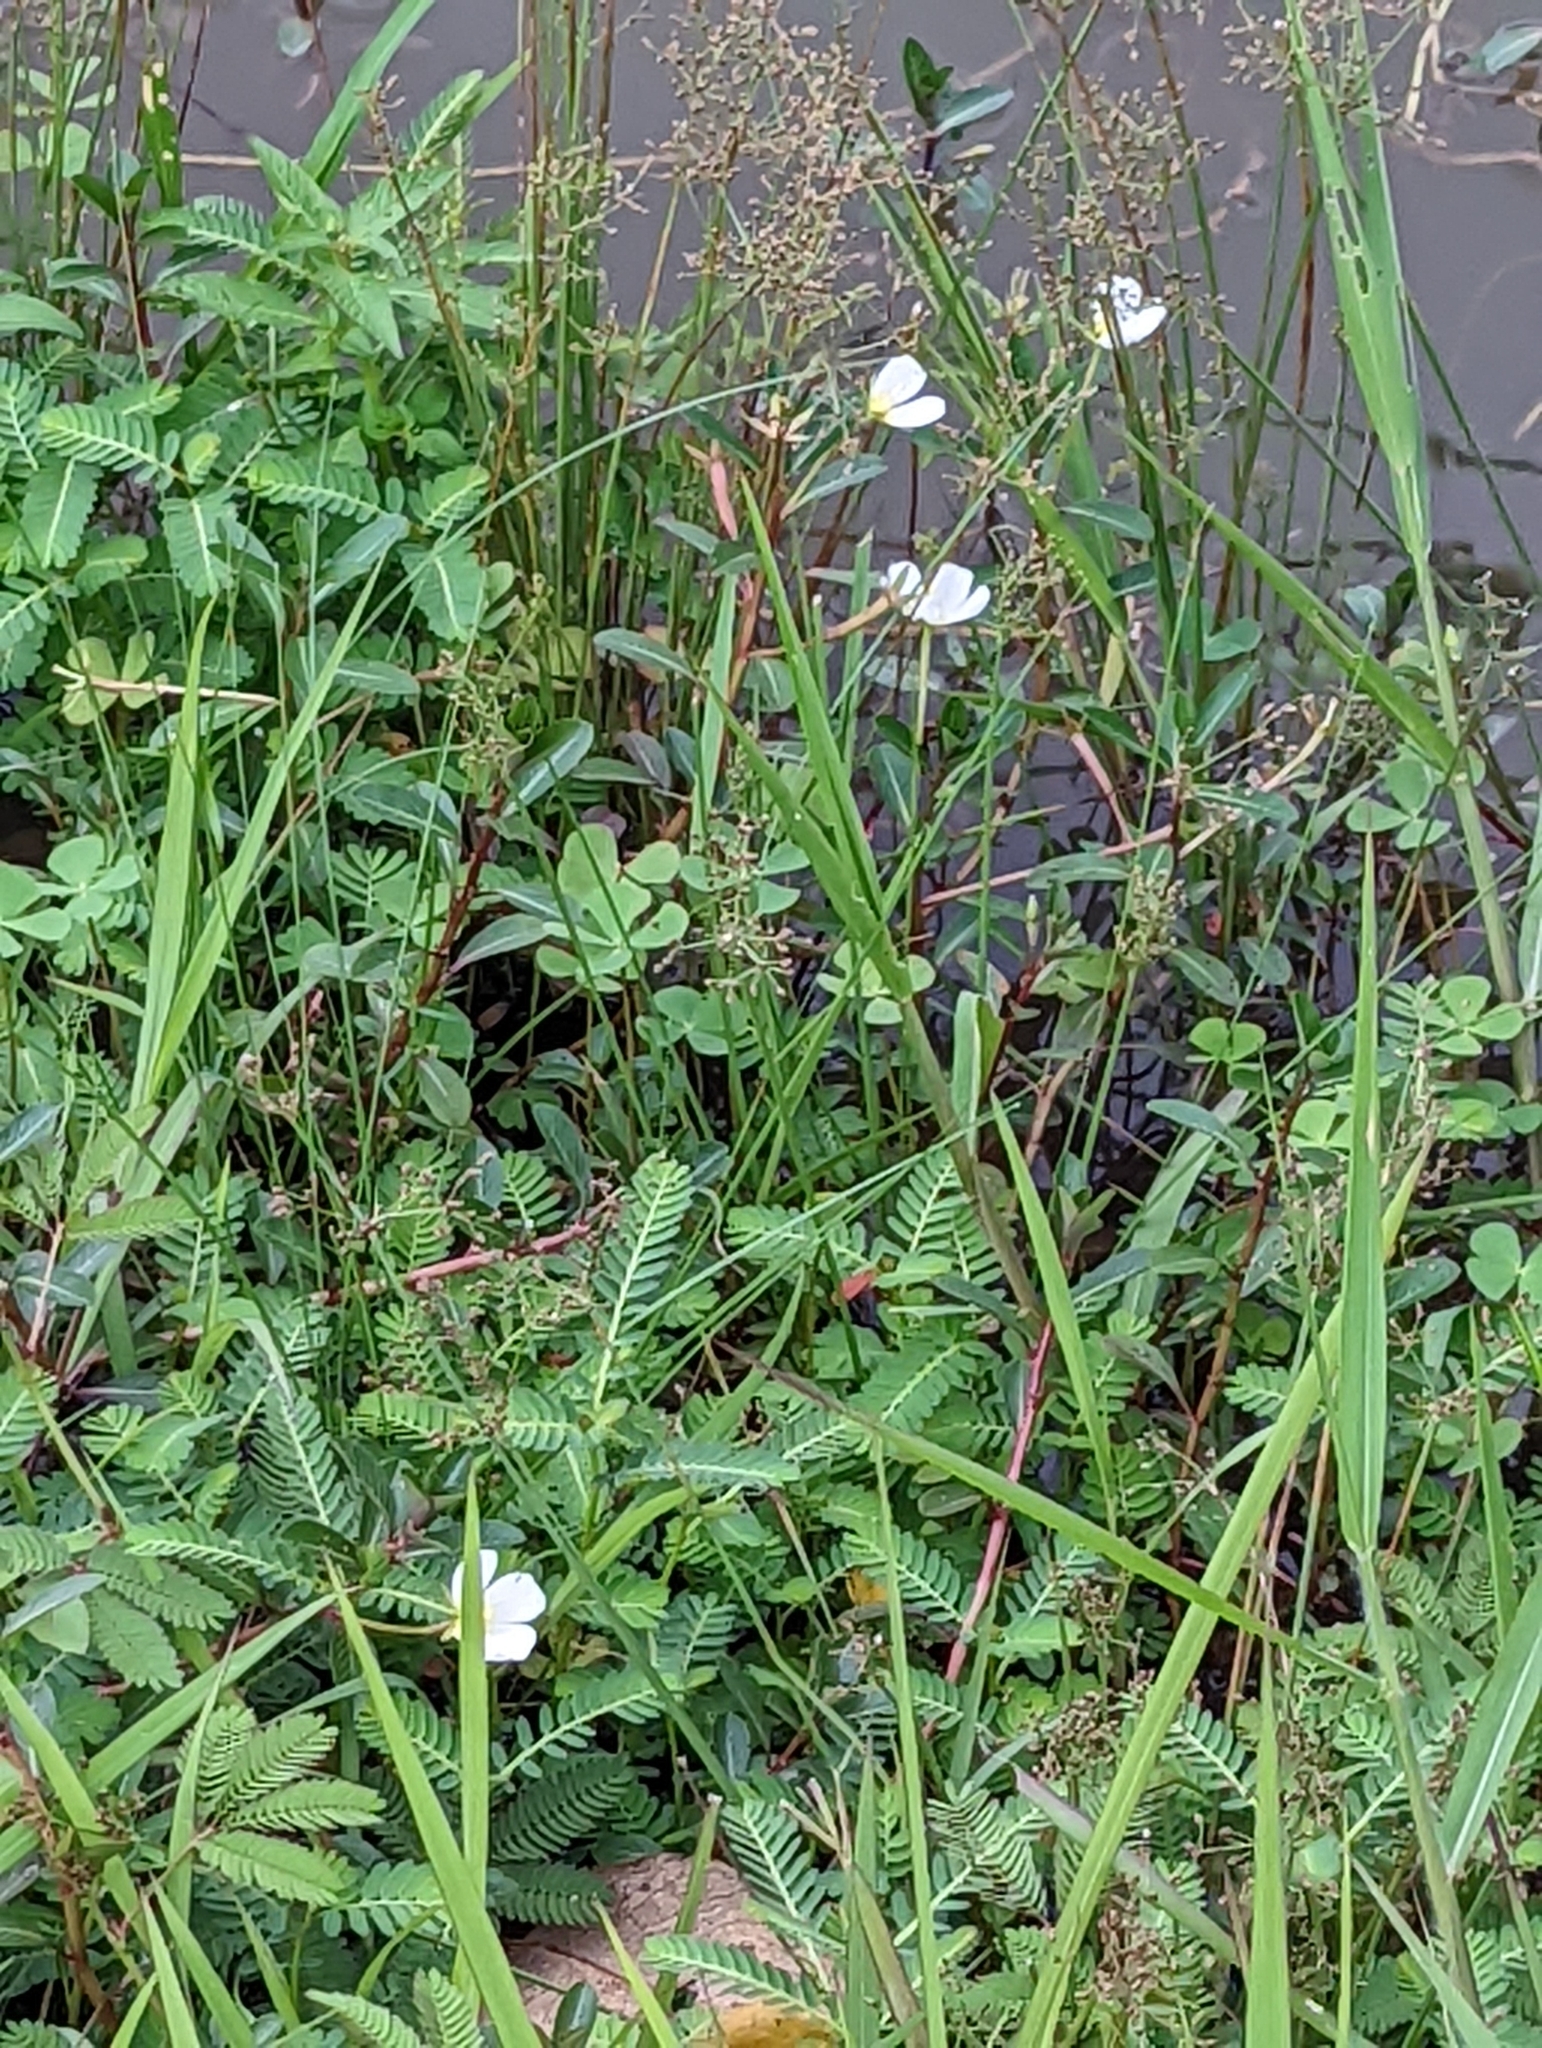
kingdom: Plantae
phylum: Tracheophyta
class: Magnoliopsida
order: Myrtales
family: Onagraceae
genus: Ludwigia
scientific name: Ludwigia adscendens
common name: Creeping water primrose
